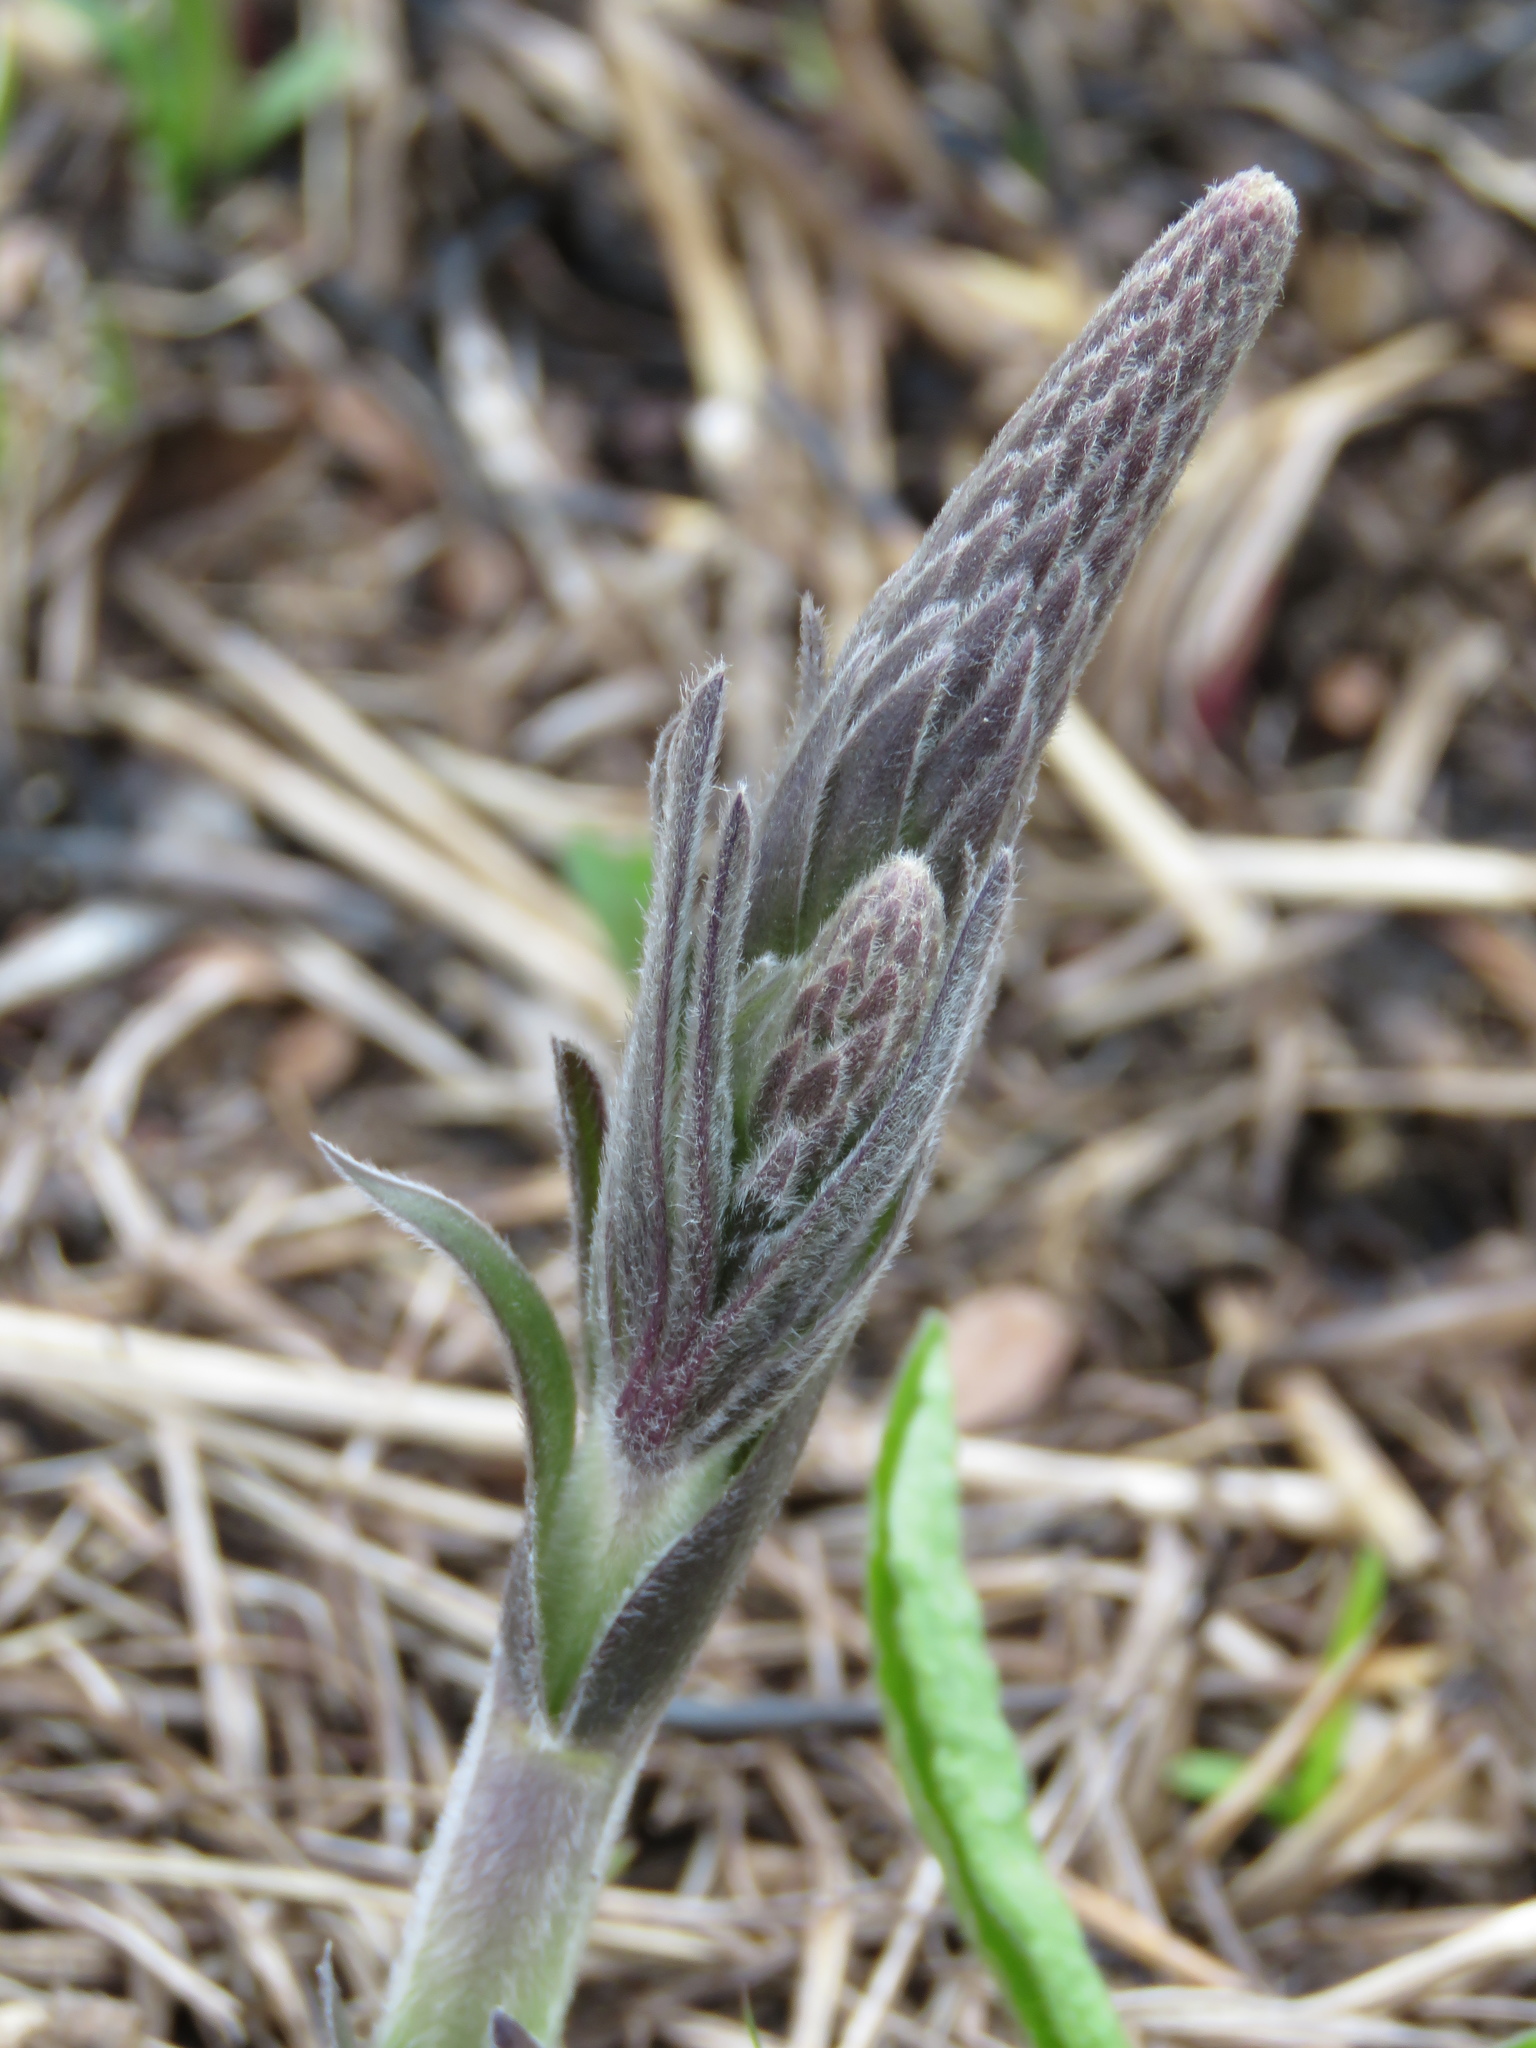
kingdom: Plantae
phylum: Tracheophyta
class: Magnoliopsida
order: Fabales
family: Fabaceae
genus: Baptisia
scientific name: Baptisia bracteata
